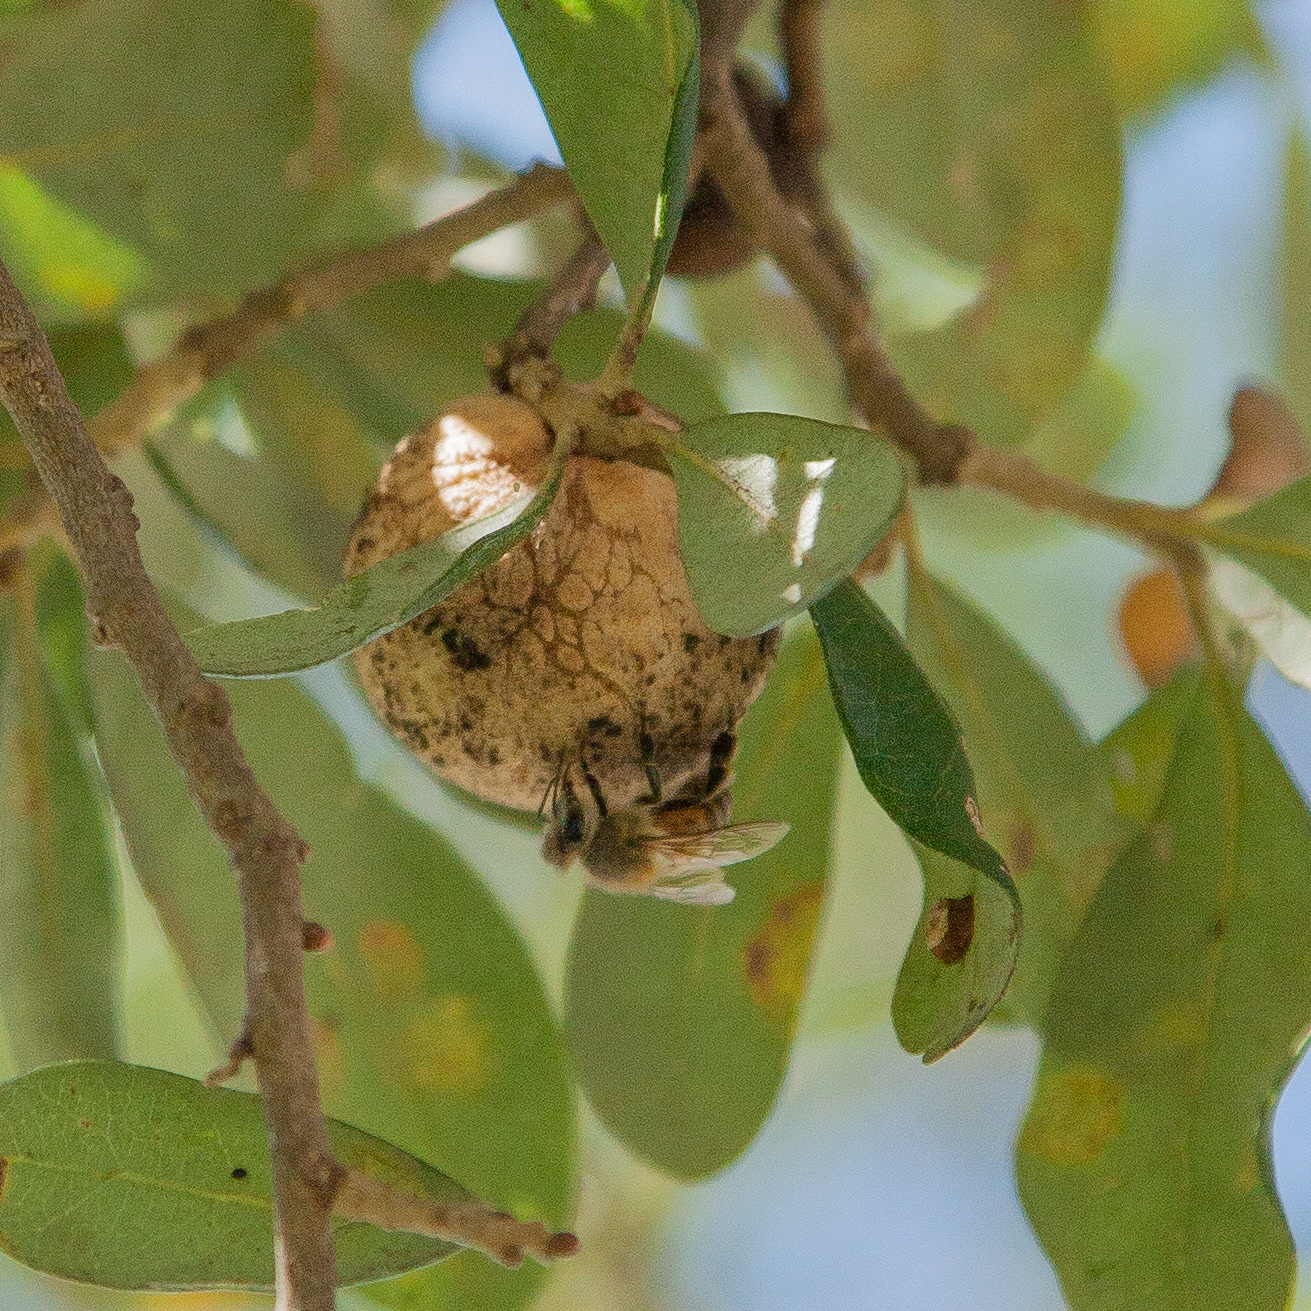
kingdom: Animalia
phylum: Arthropoda
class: Insecta
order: Hymenoptera
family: Cynipidae
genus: Disholcaspis
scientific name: Disholcaspis
